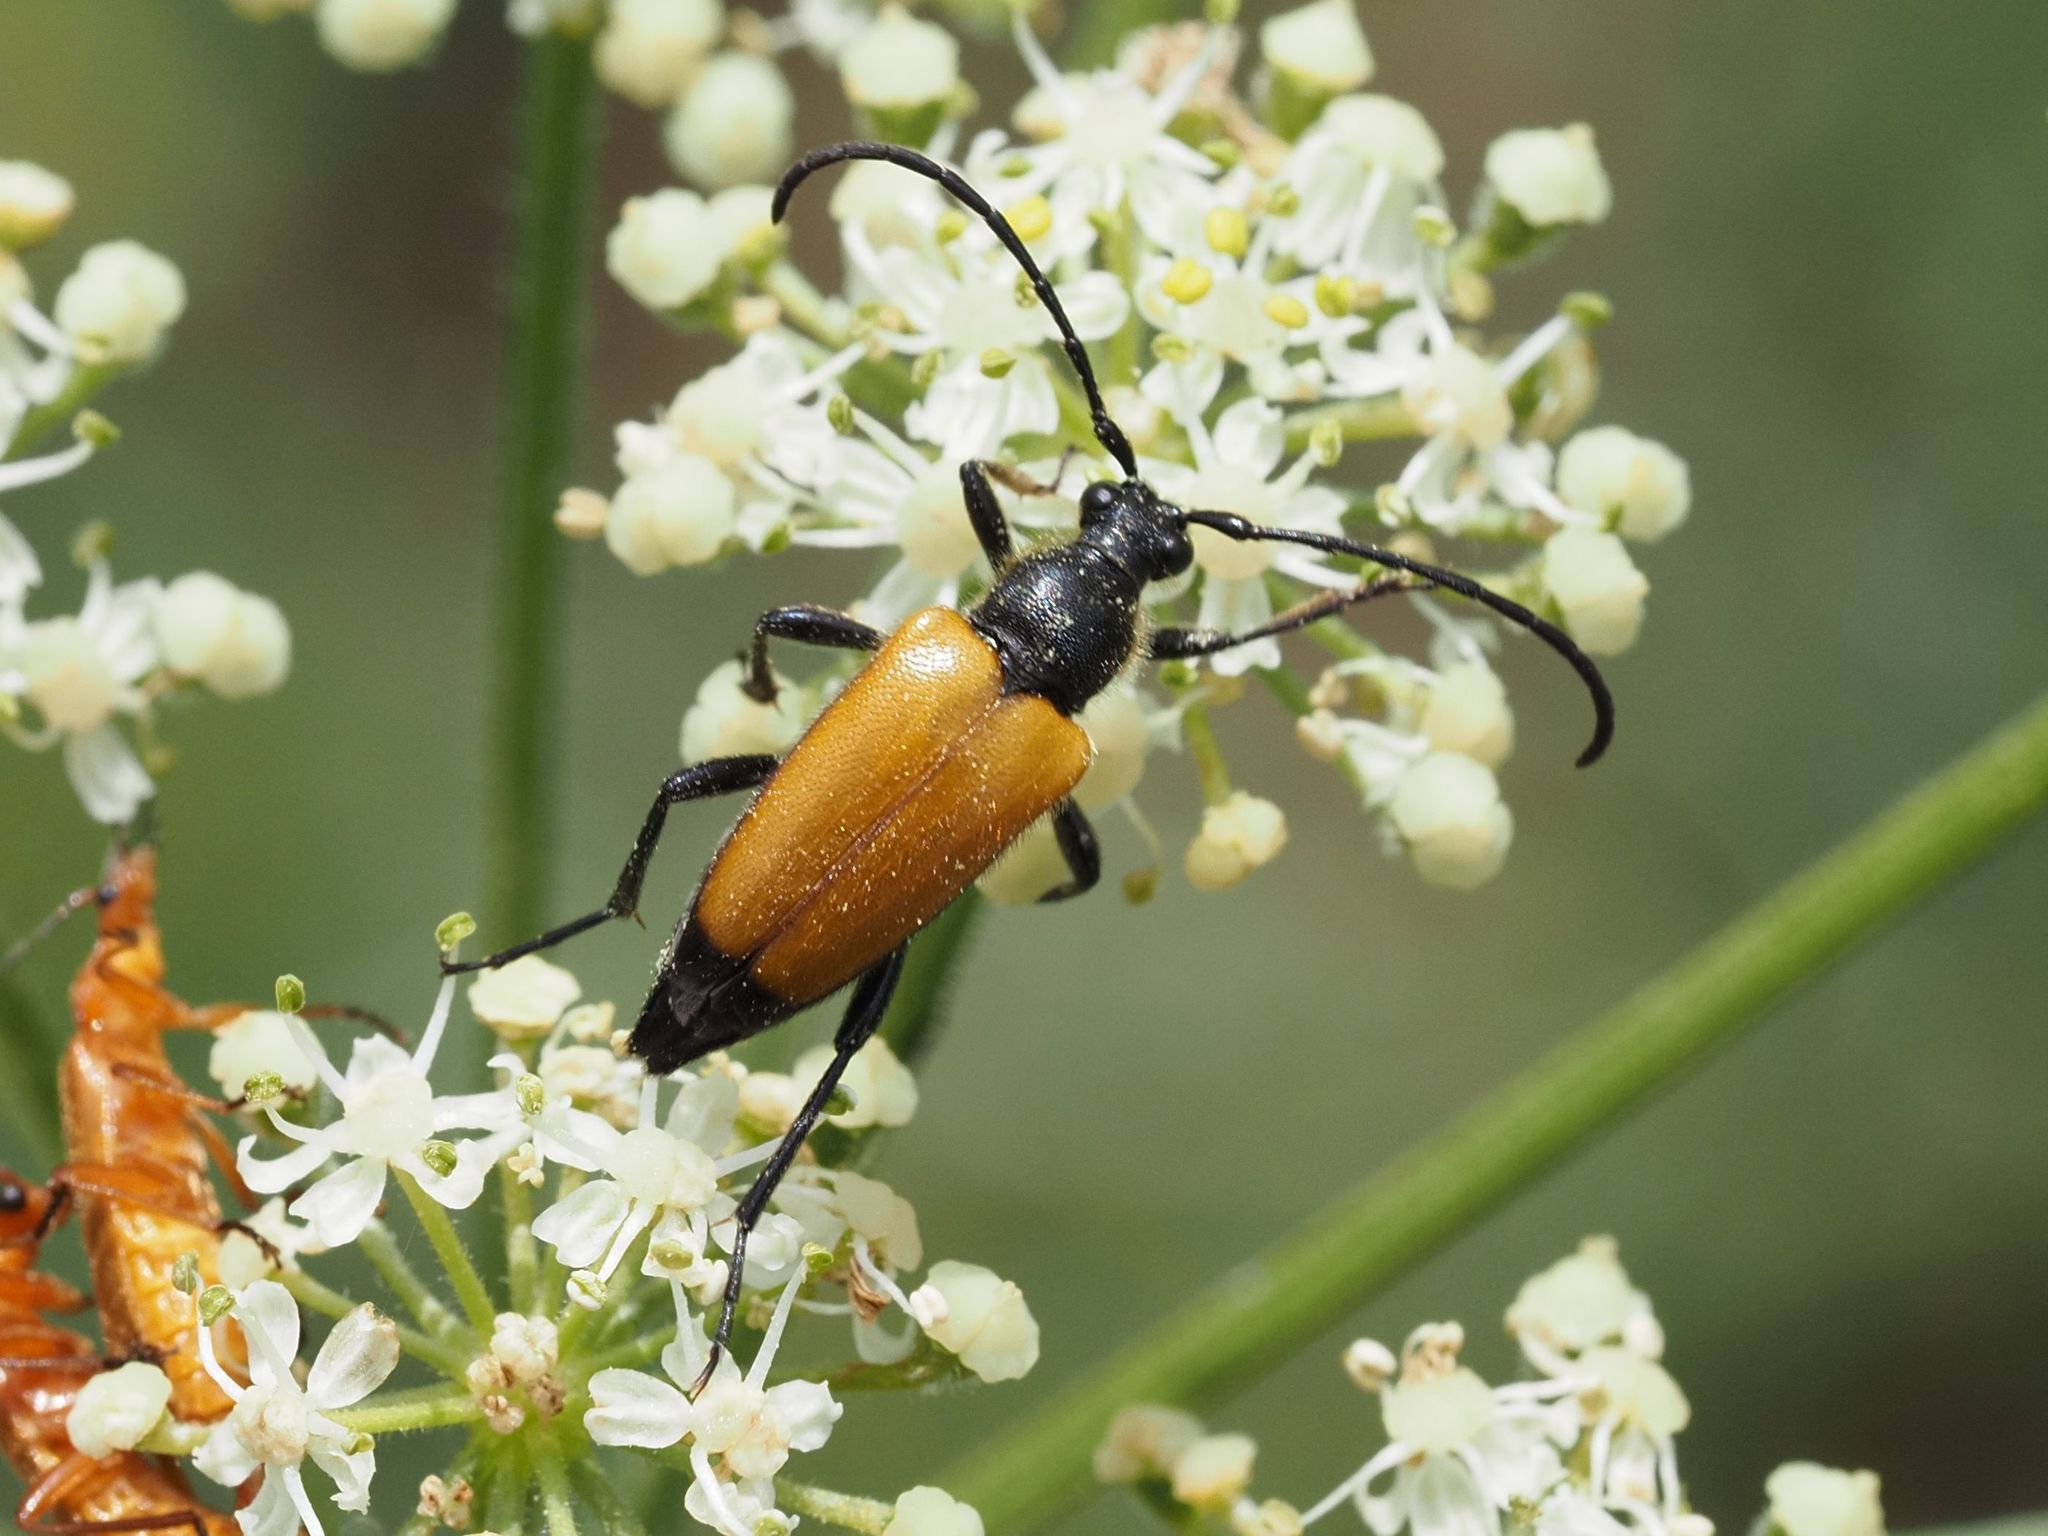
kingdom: Animalia
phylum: Arthropoda
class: Insecta
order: Coleoptera
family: Cerambycidae
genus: Paracorymbia
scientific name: Paracorymbia fulva
